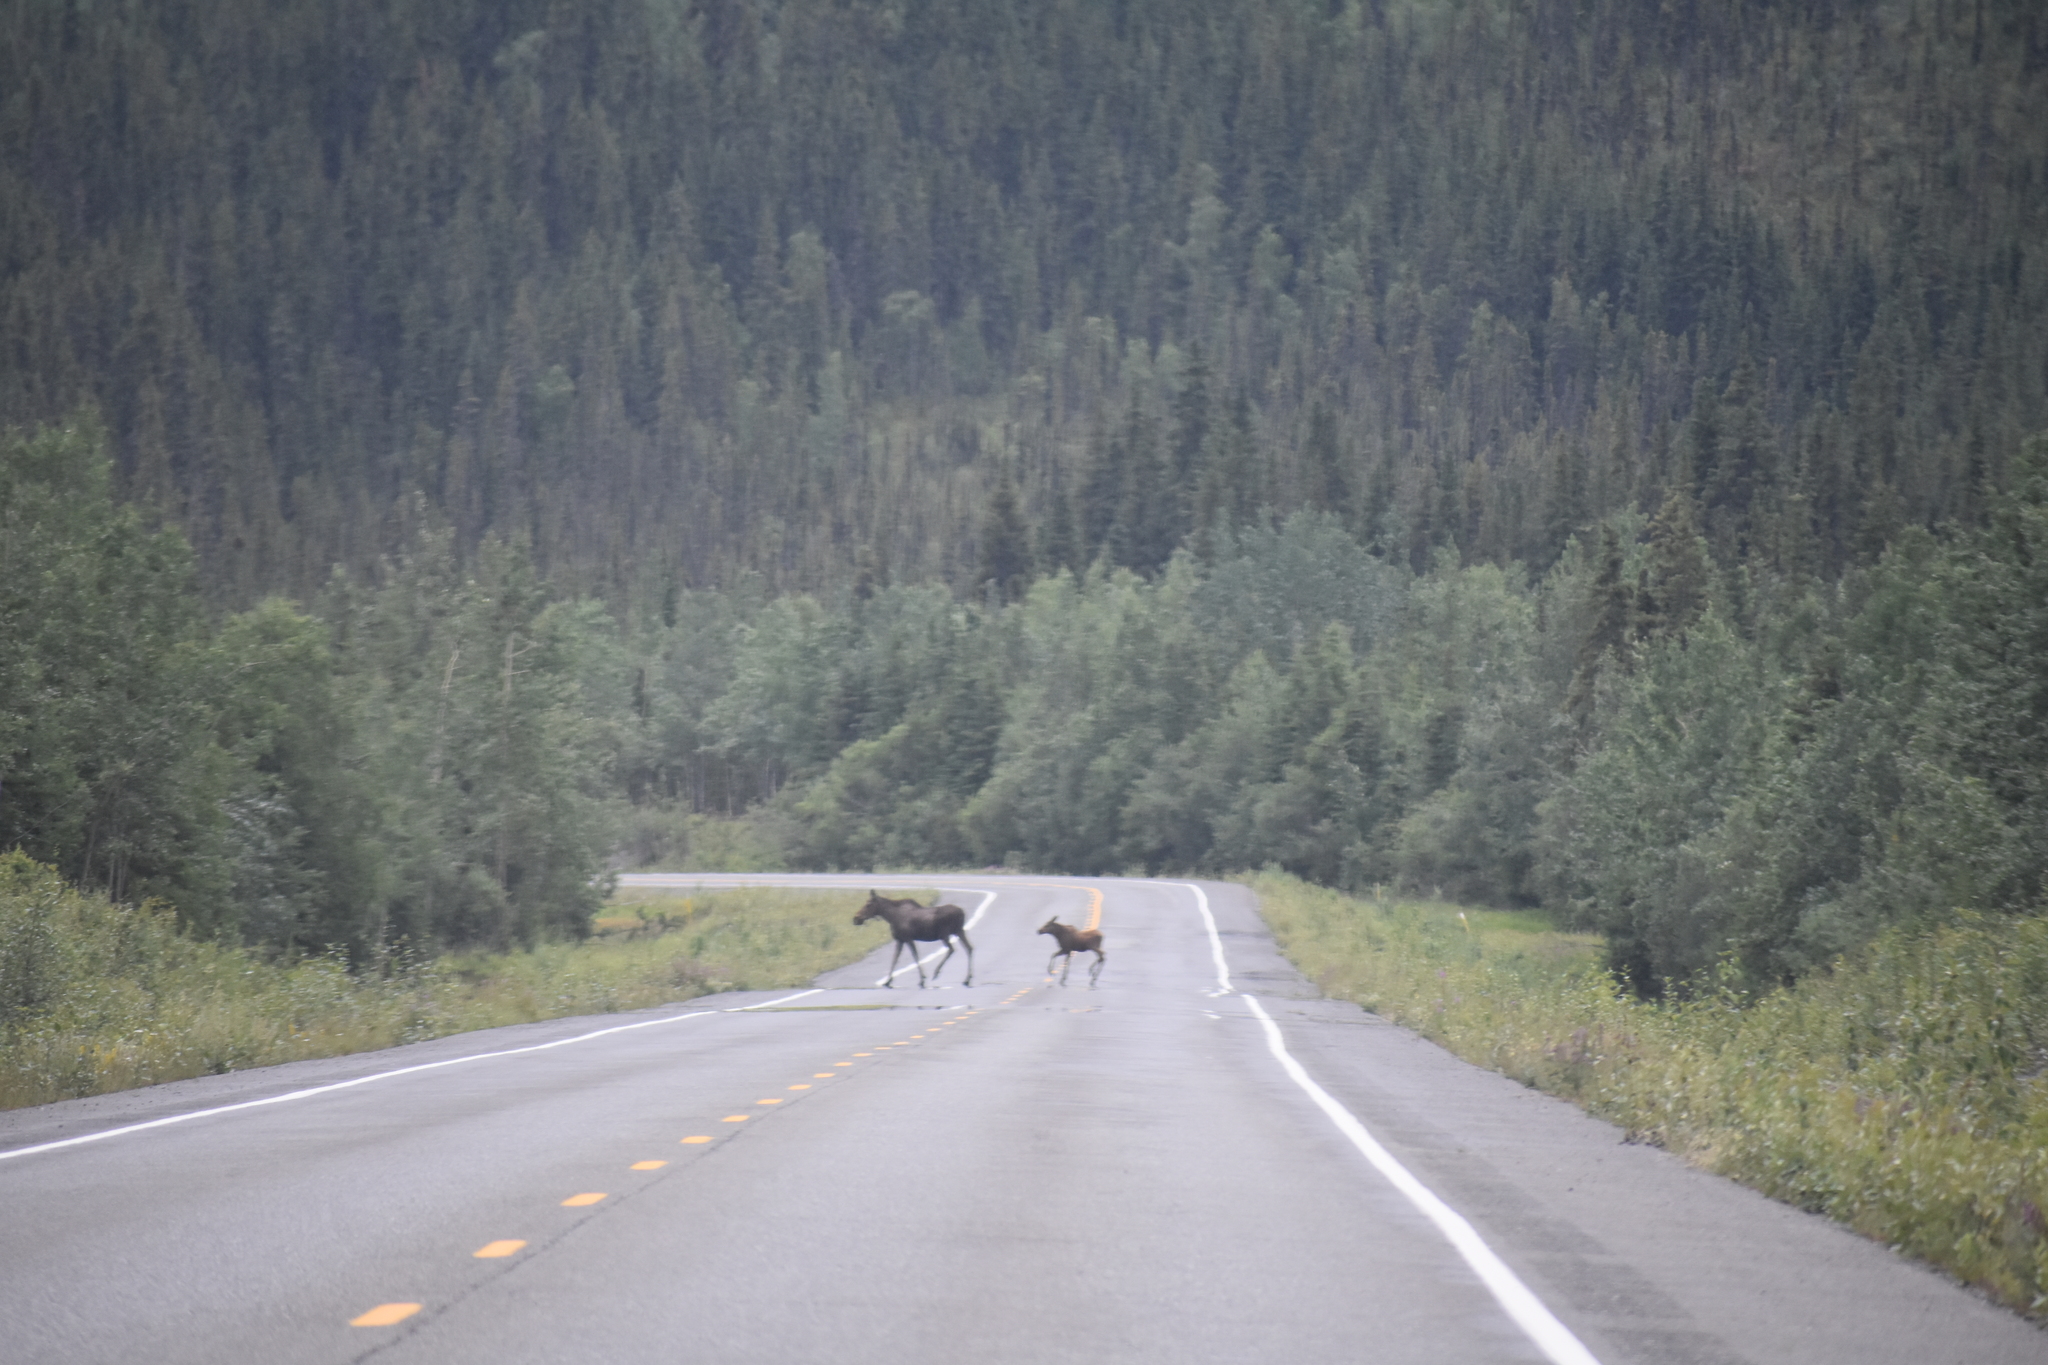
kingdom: Animalia
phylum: Chordata
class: Mammalia
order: Artiodactyla
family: Cervidae
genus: Alces
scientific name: Alces alces
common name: Moose
